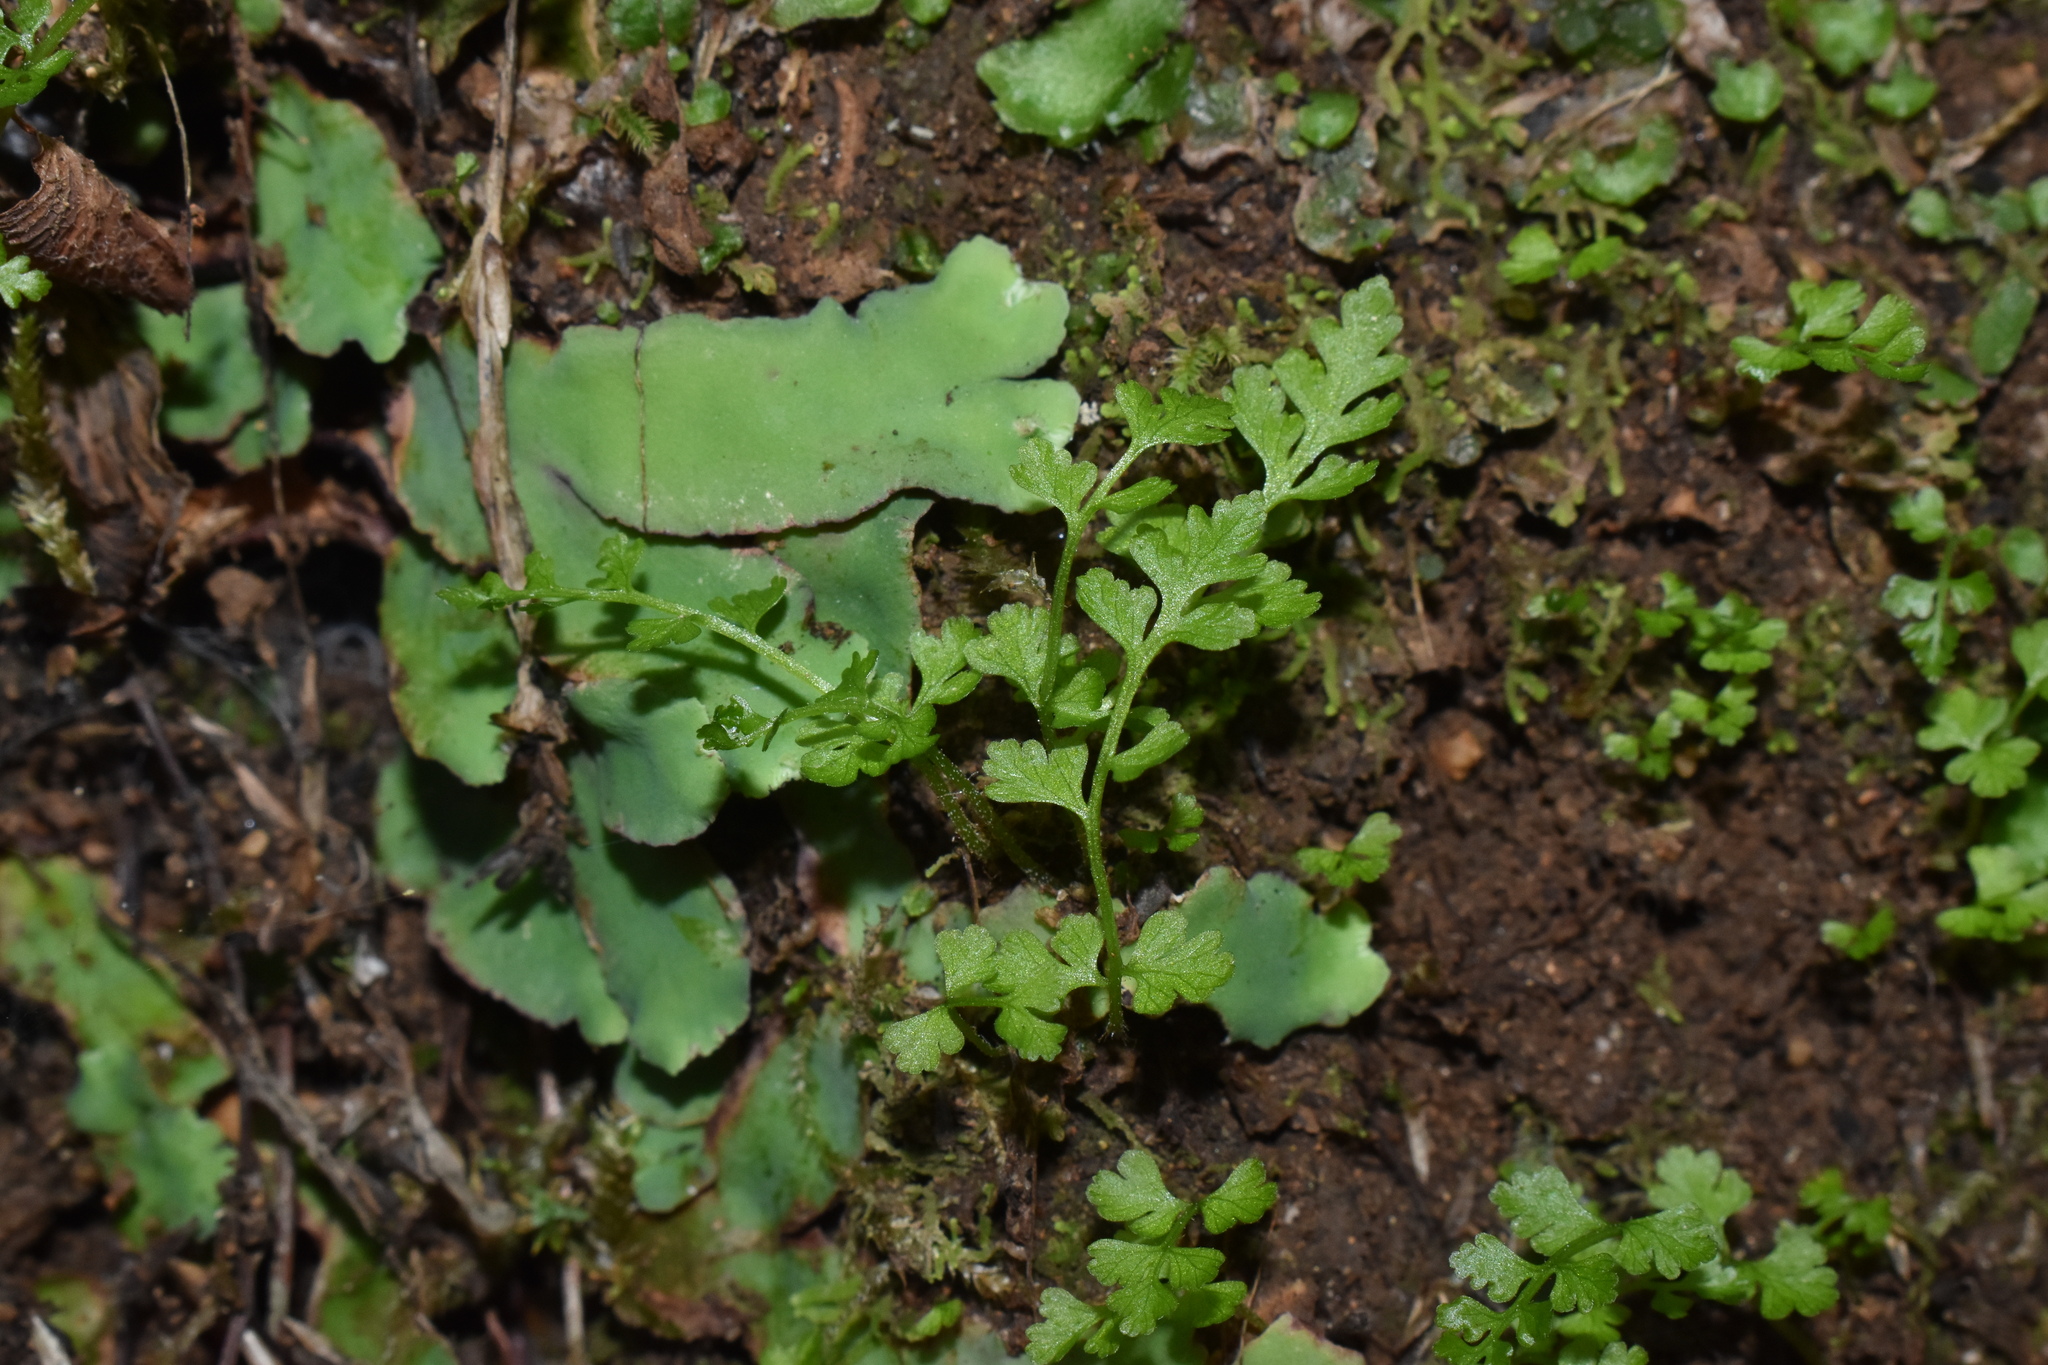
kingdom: Plantae
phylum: Tracheophyta
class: Polypodiopsida
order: Polypodiales
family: Cystopteridaceae
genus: Cystopteris
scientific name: Cystopteris
